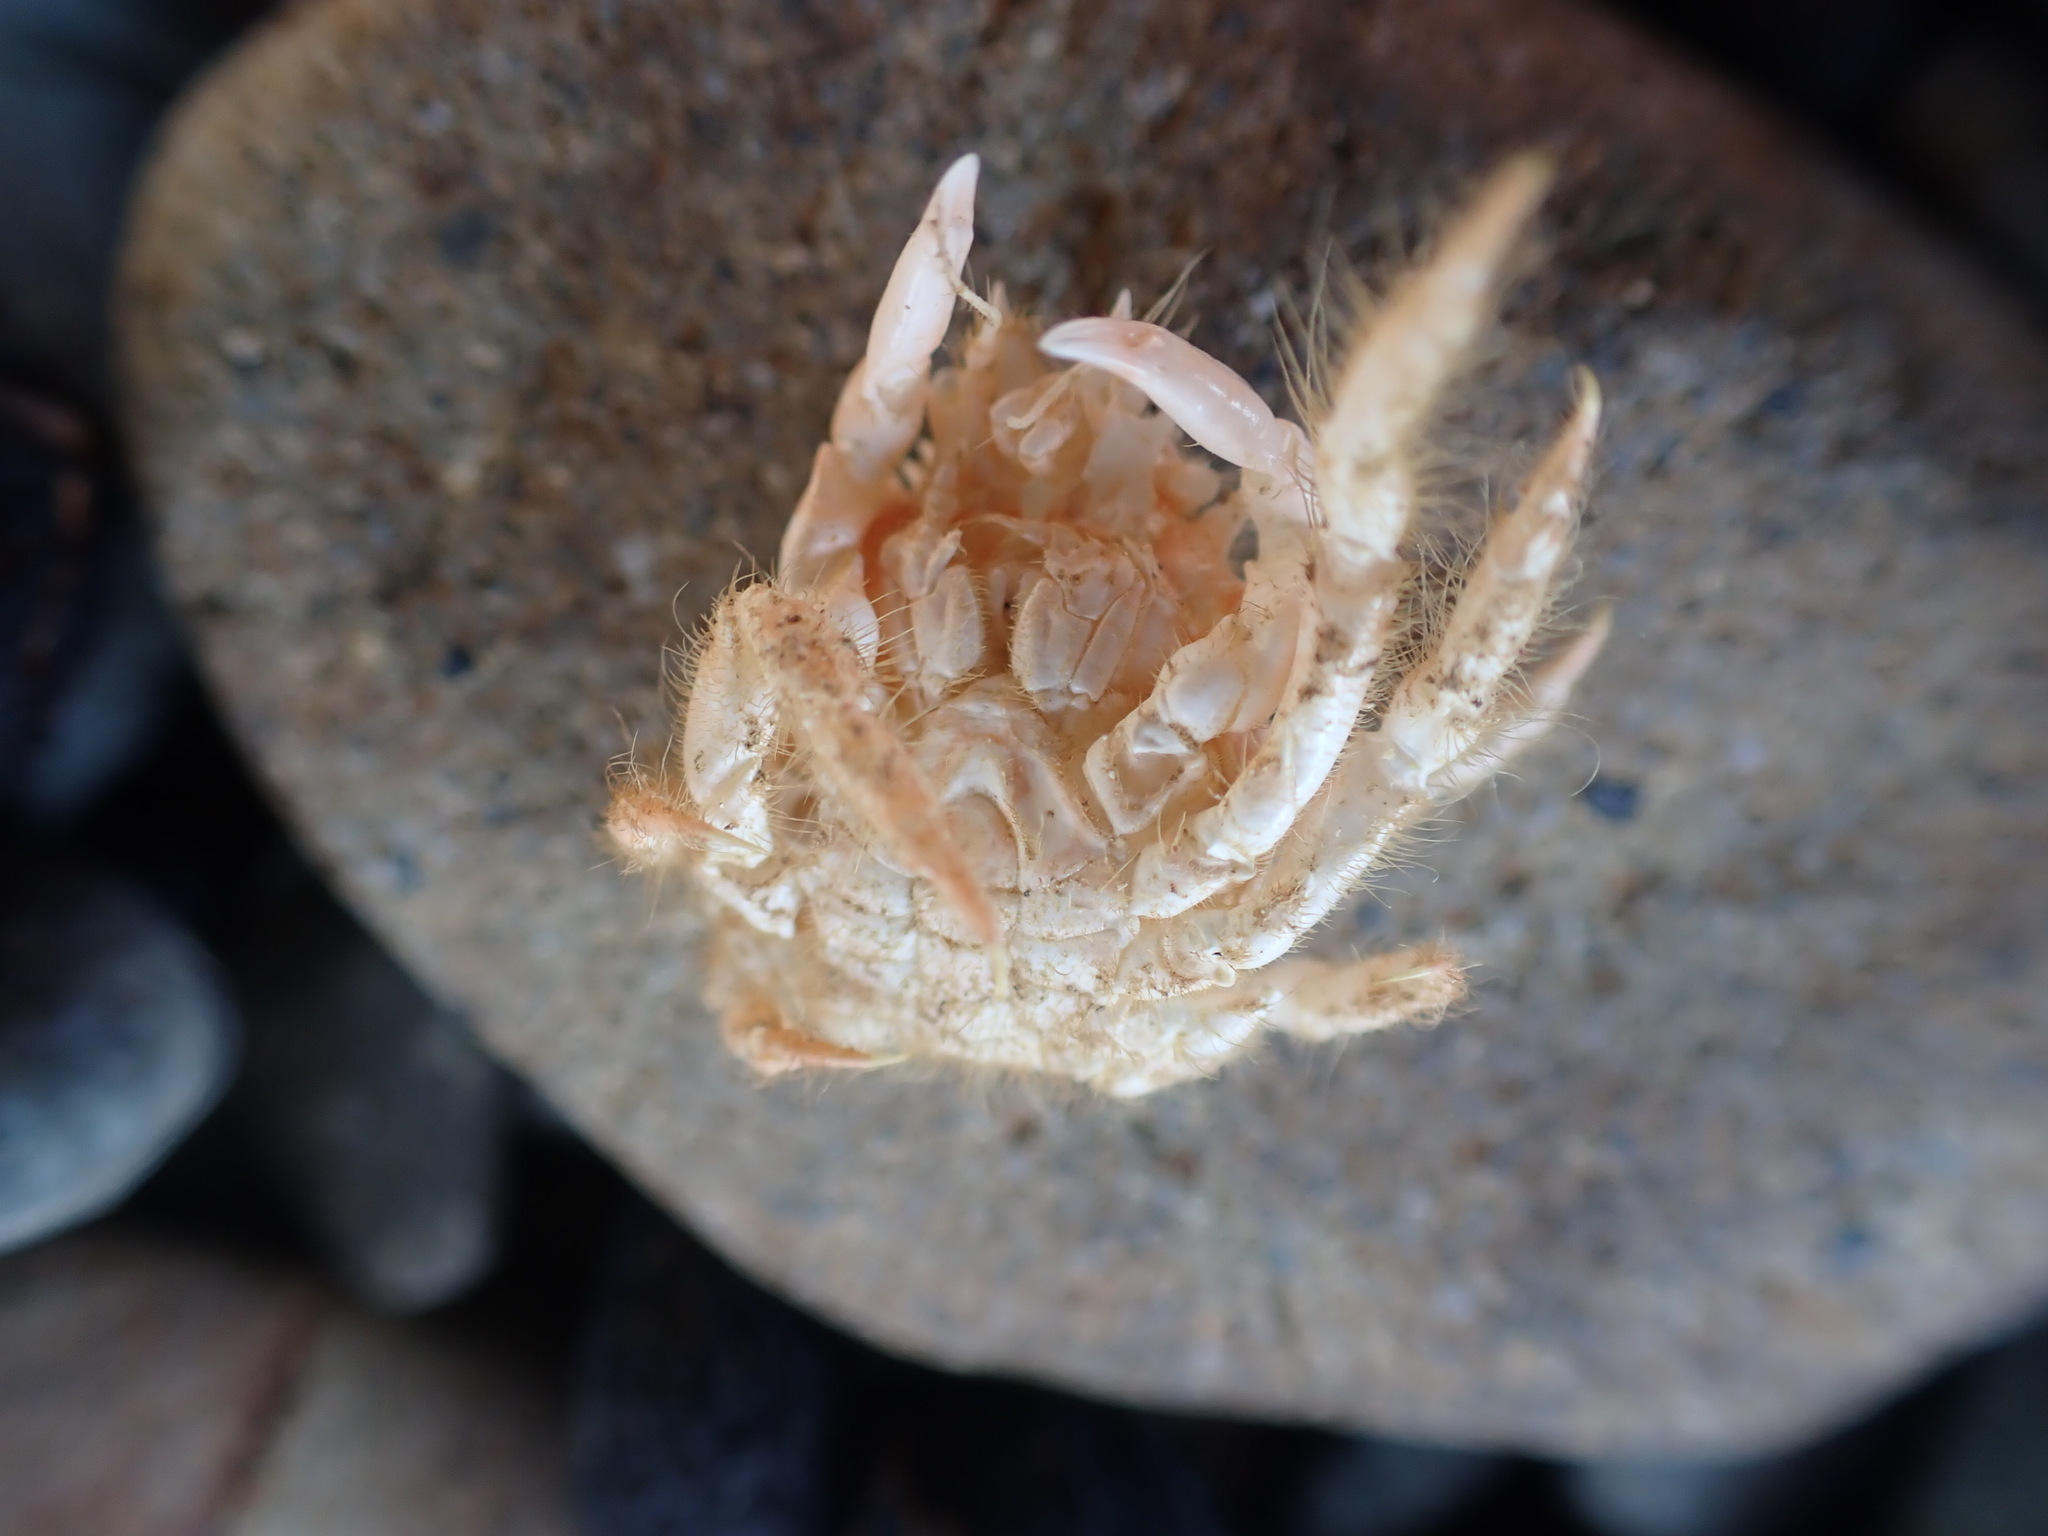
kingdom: Animalia
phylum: Arthropoda
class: Malacostraca
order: Decapoda
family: Majidae
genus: Notomithrax
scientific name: Notomithrax ursus
